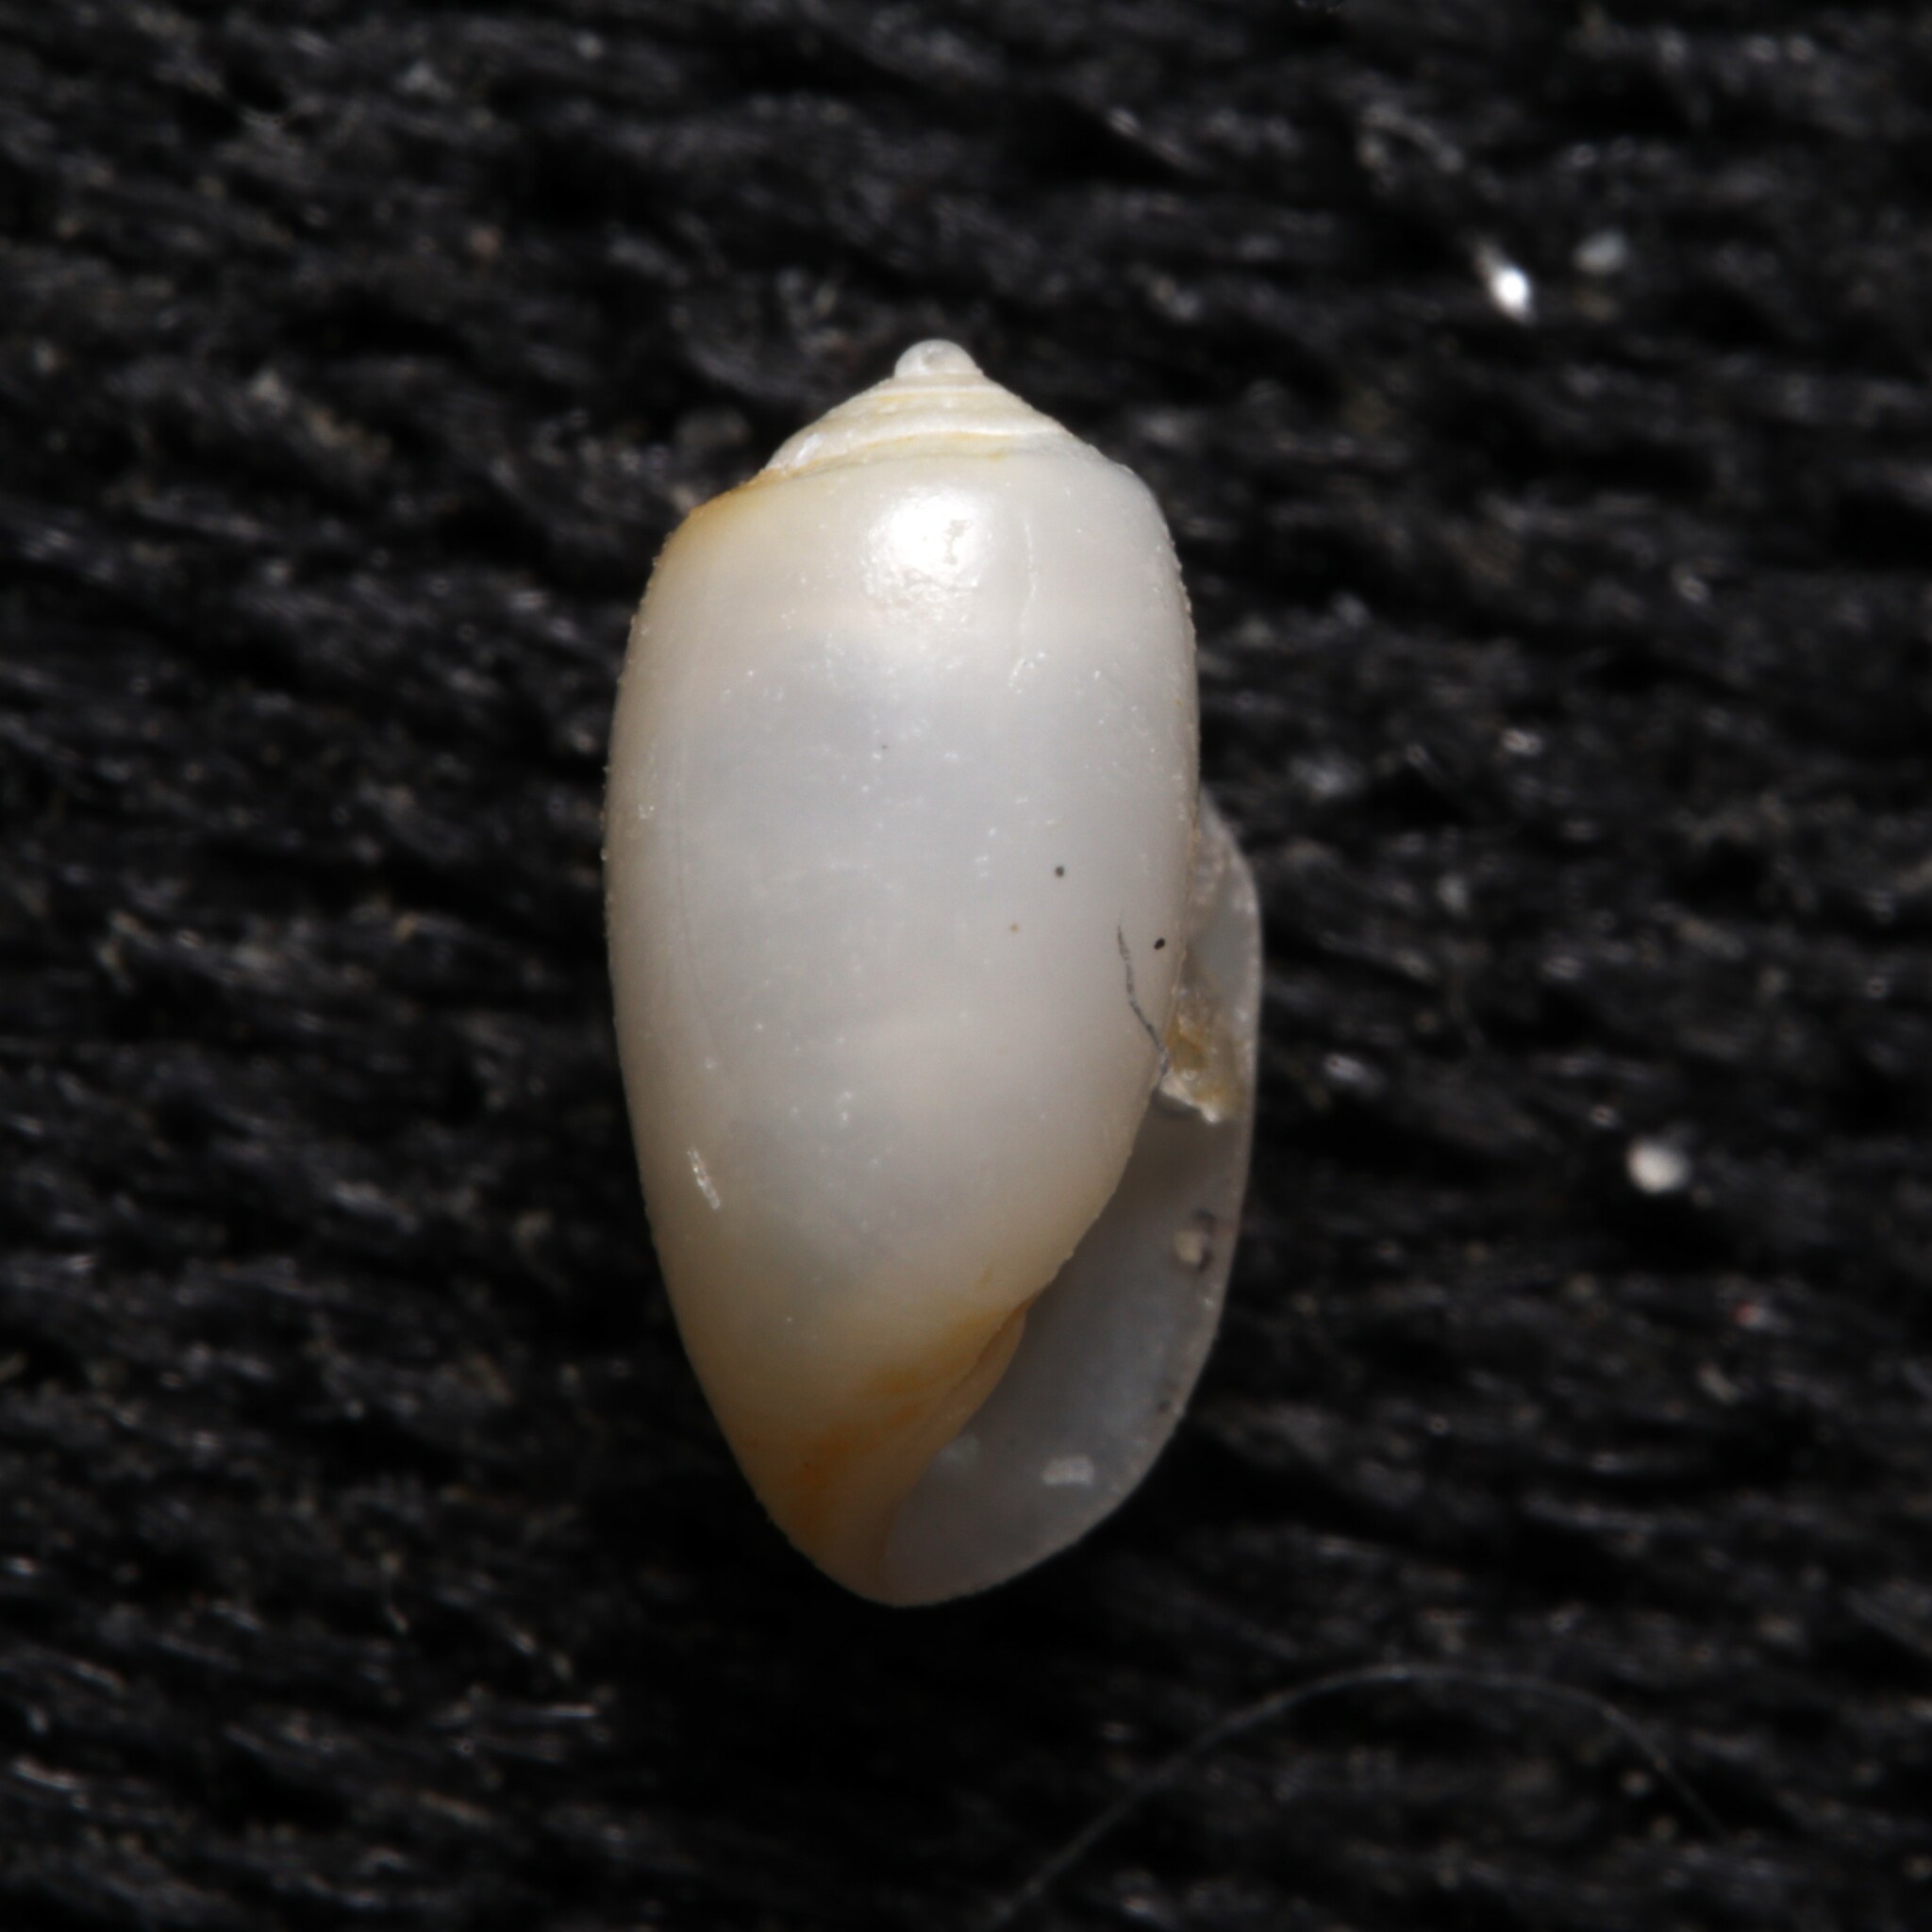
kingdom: Animalia
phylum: Mollusca
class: Gastropoda
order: Cephalaspidea
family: Tornatinidae
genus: Acteocina
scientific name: Acteocina canaliculata
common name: Channeled barrel-bubble
